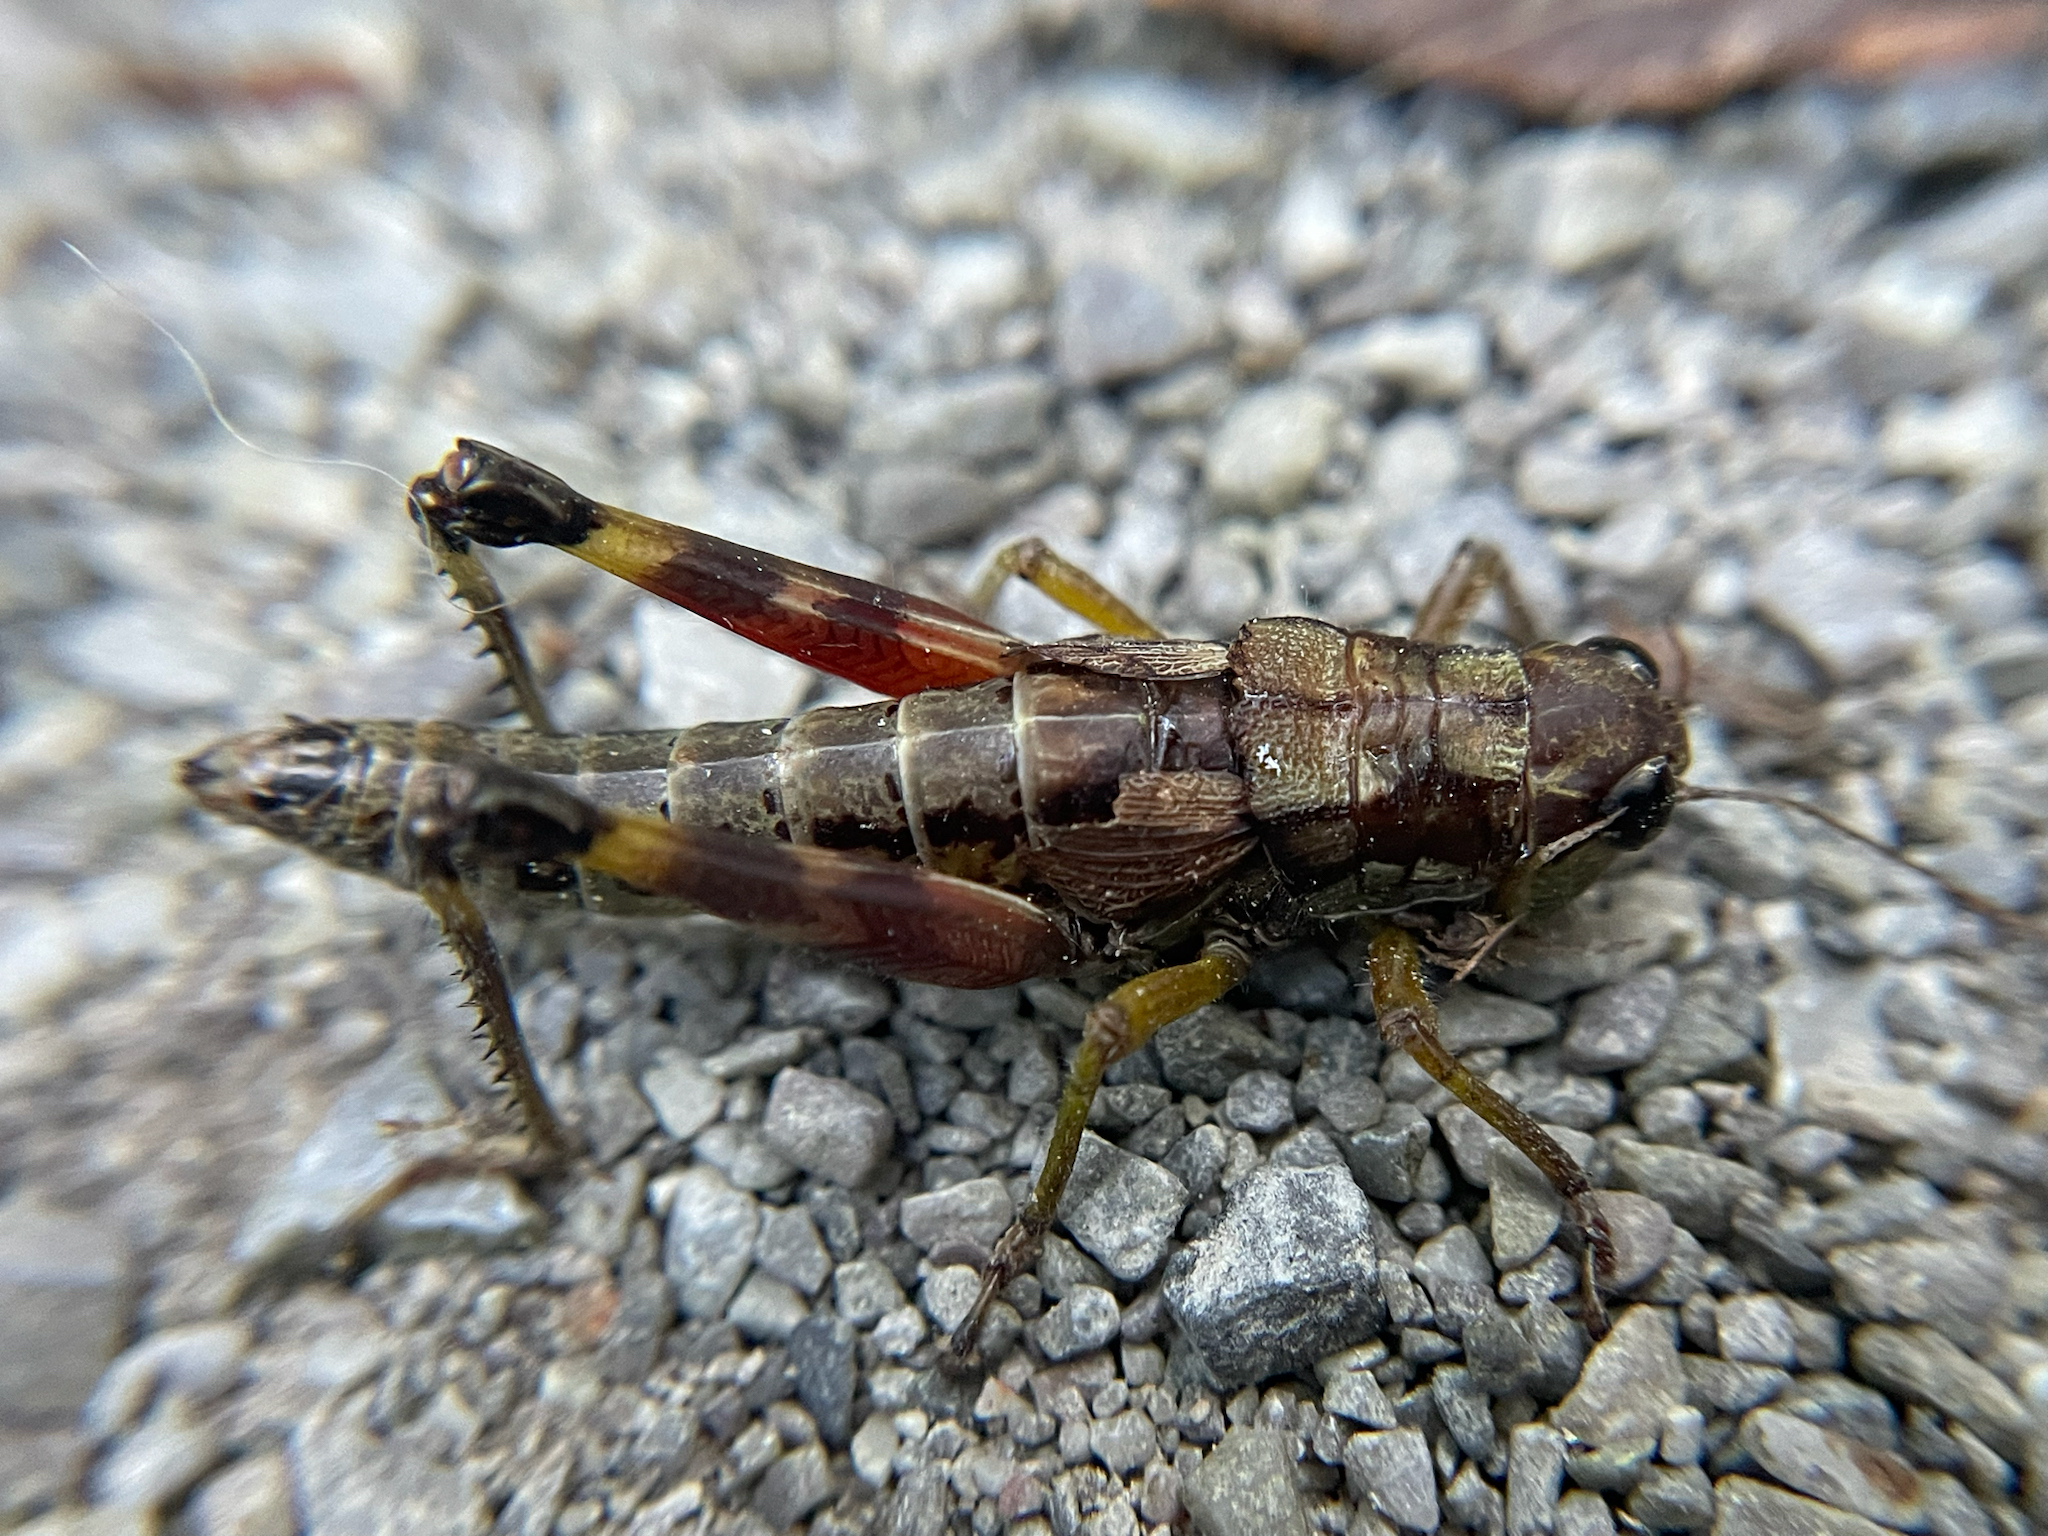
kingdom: Animalia
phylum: Arthropoda
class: Insecta
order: Orthoptera
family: Acrididae
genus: Dendrotettix
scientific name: Dendrotettix quercus
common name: Post oak grasshopper
